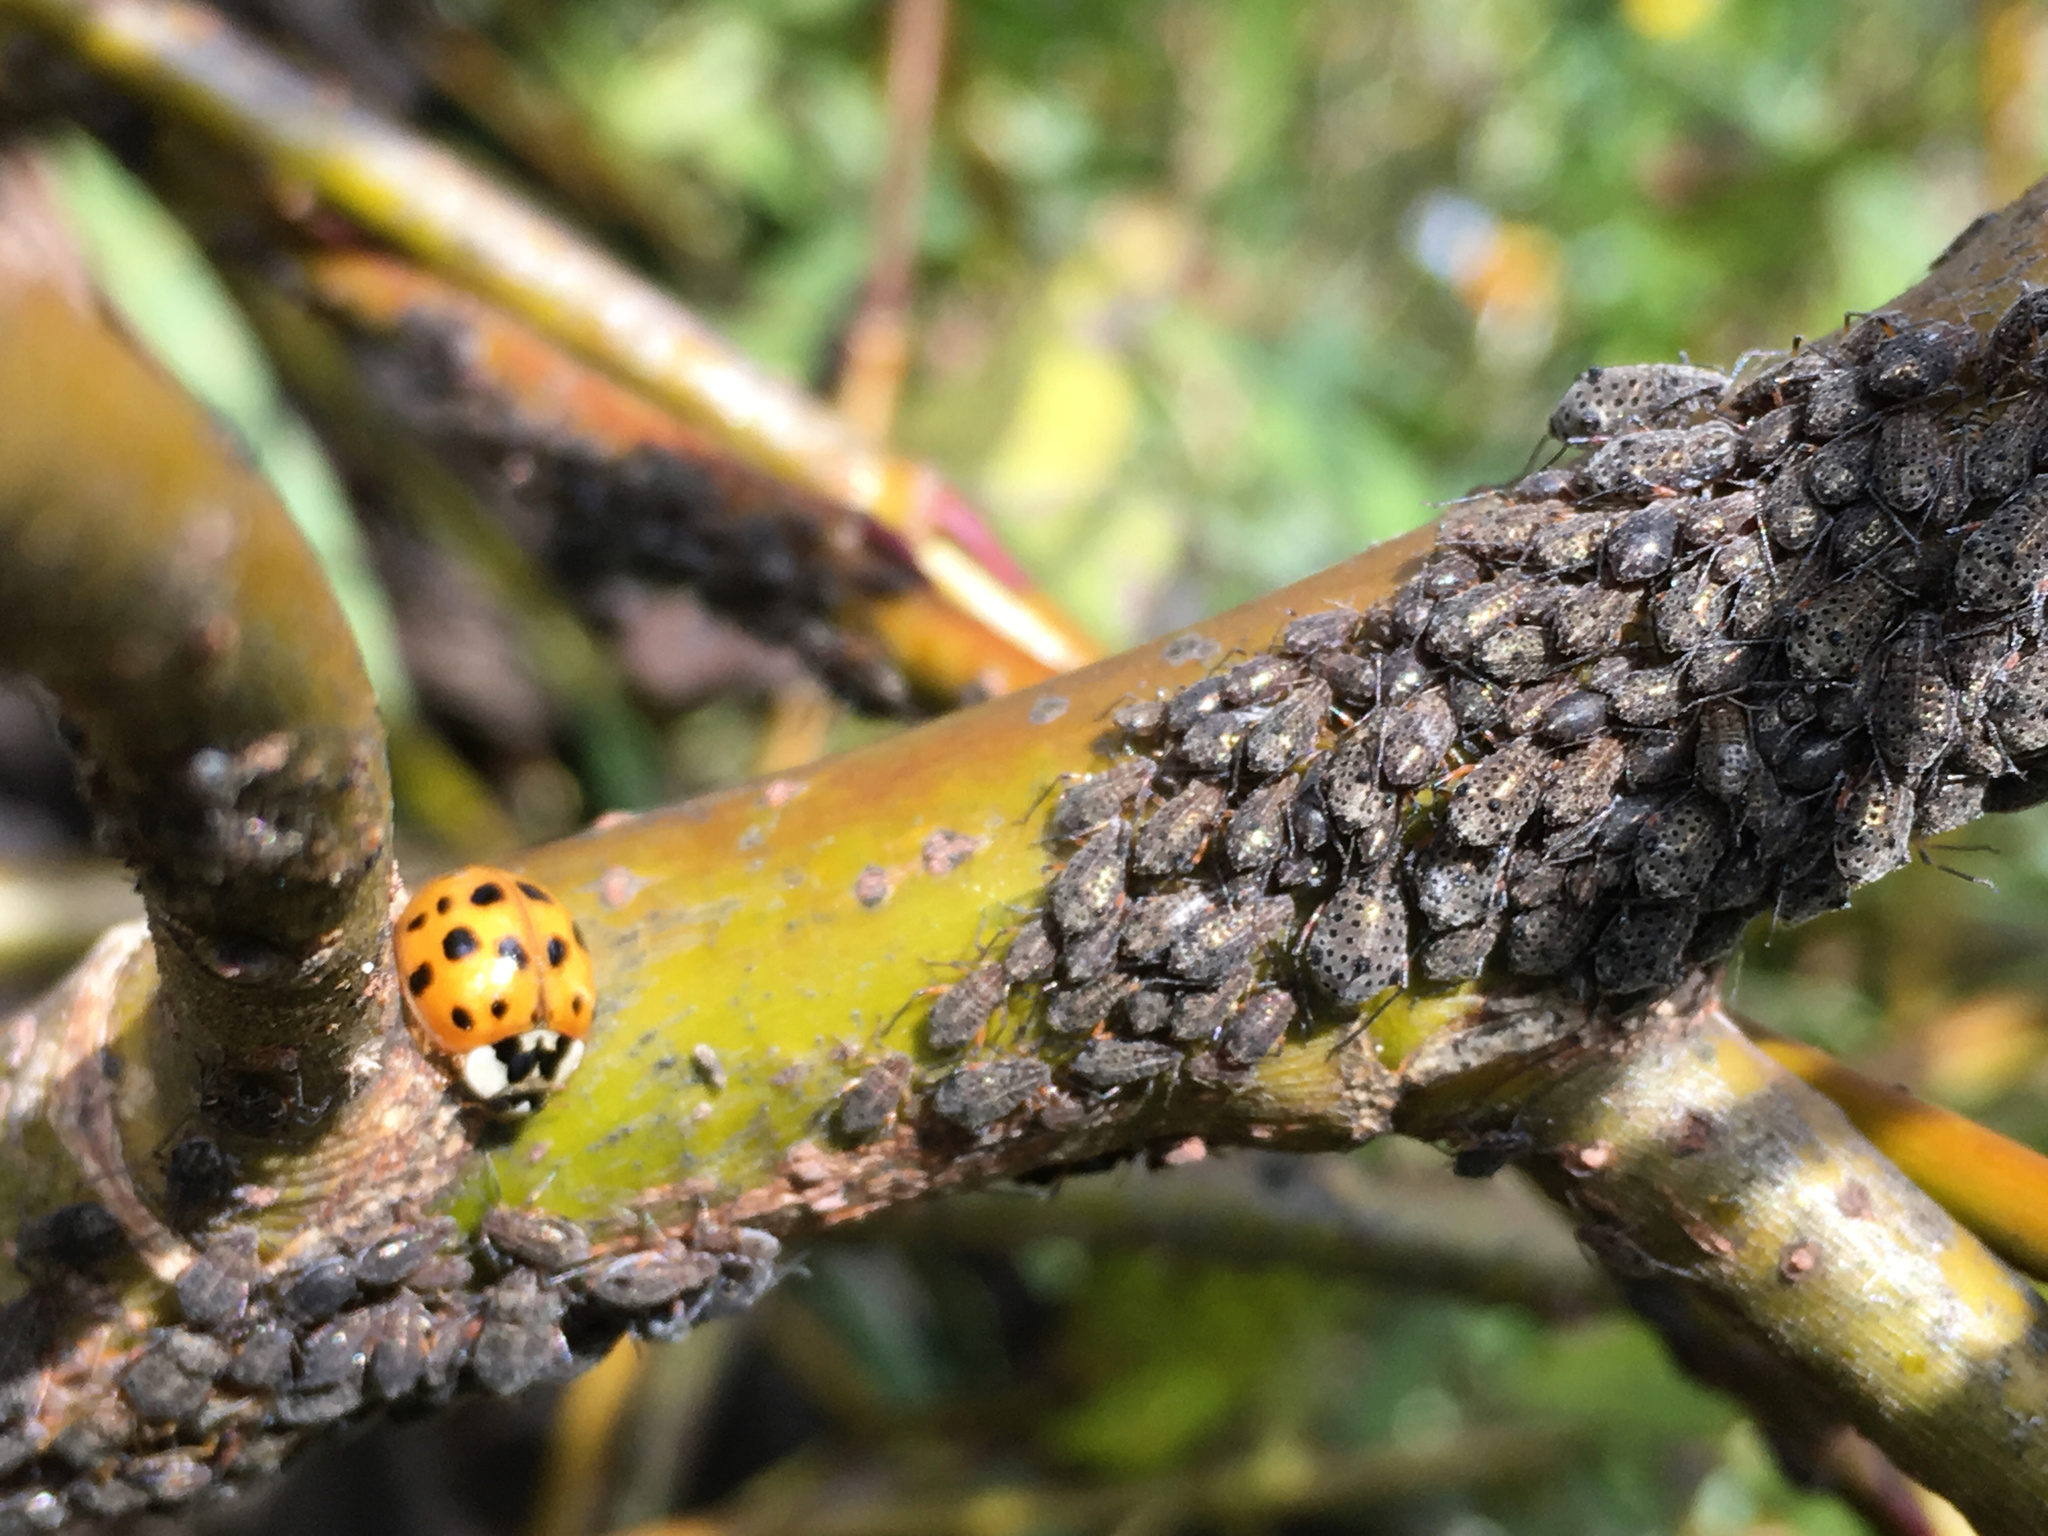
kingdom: Animalia
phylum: Arthropoda
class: Insecta
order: Coleoptera
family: Coccinellidae
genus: Harmonia
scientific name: Harmonia axyridis
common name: Harlequin ladybird
